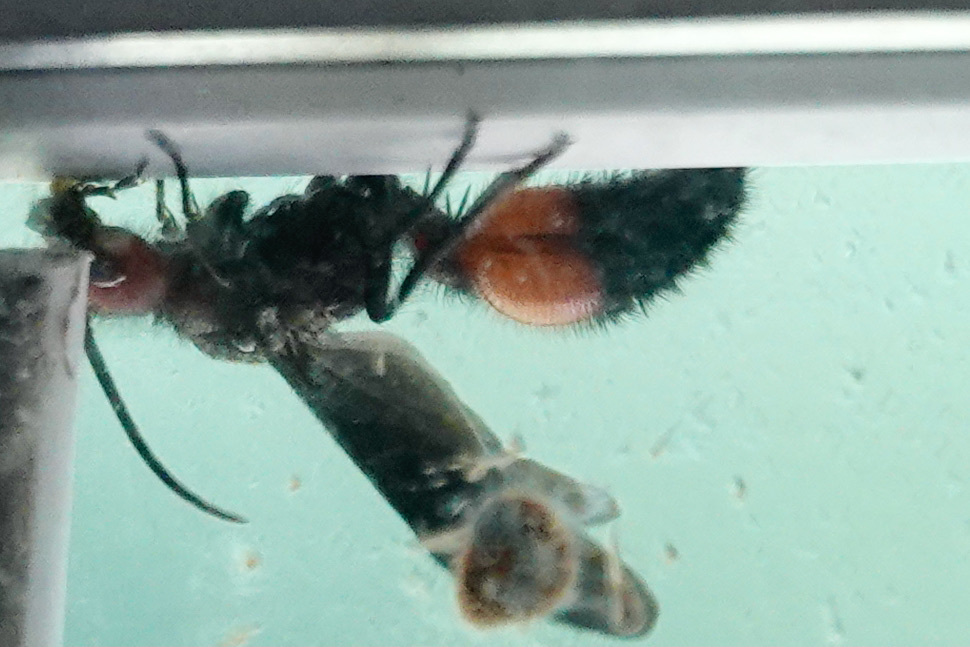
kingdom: Animalia
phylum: Arthropoda
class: Insecta
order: Hymenoptera
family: Mutillidae
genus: Sphaeropthalma
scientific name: Sphaeropthalma
